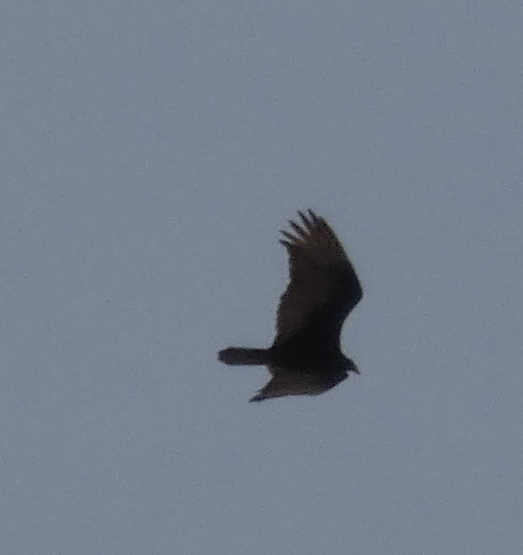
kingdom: Animalia
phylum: Chordata
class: Aves
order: Accipitriformes
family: Cathartidae
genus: Cathartes
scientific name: Cathartes aura
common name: Turkey vulture
